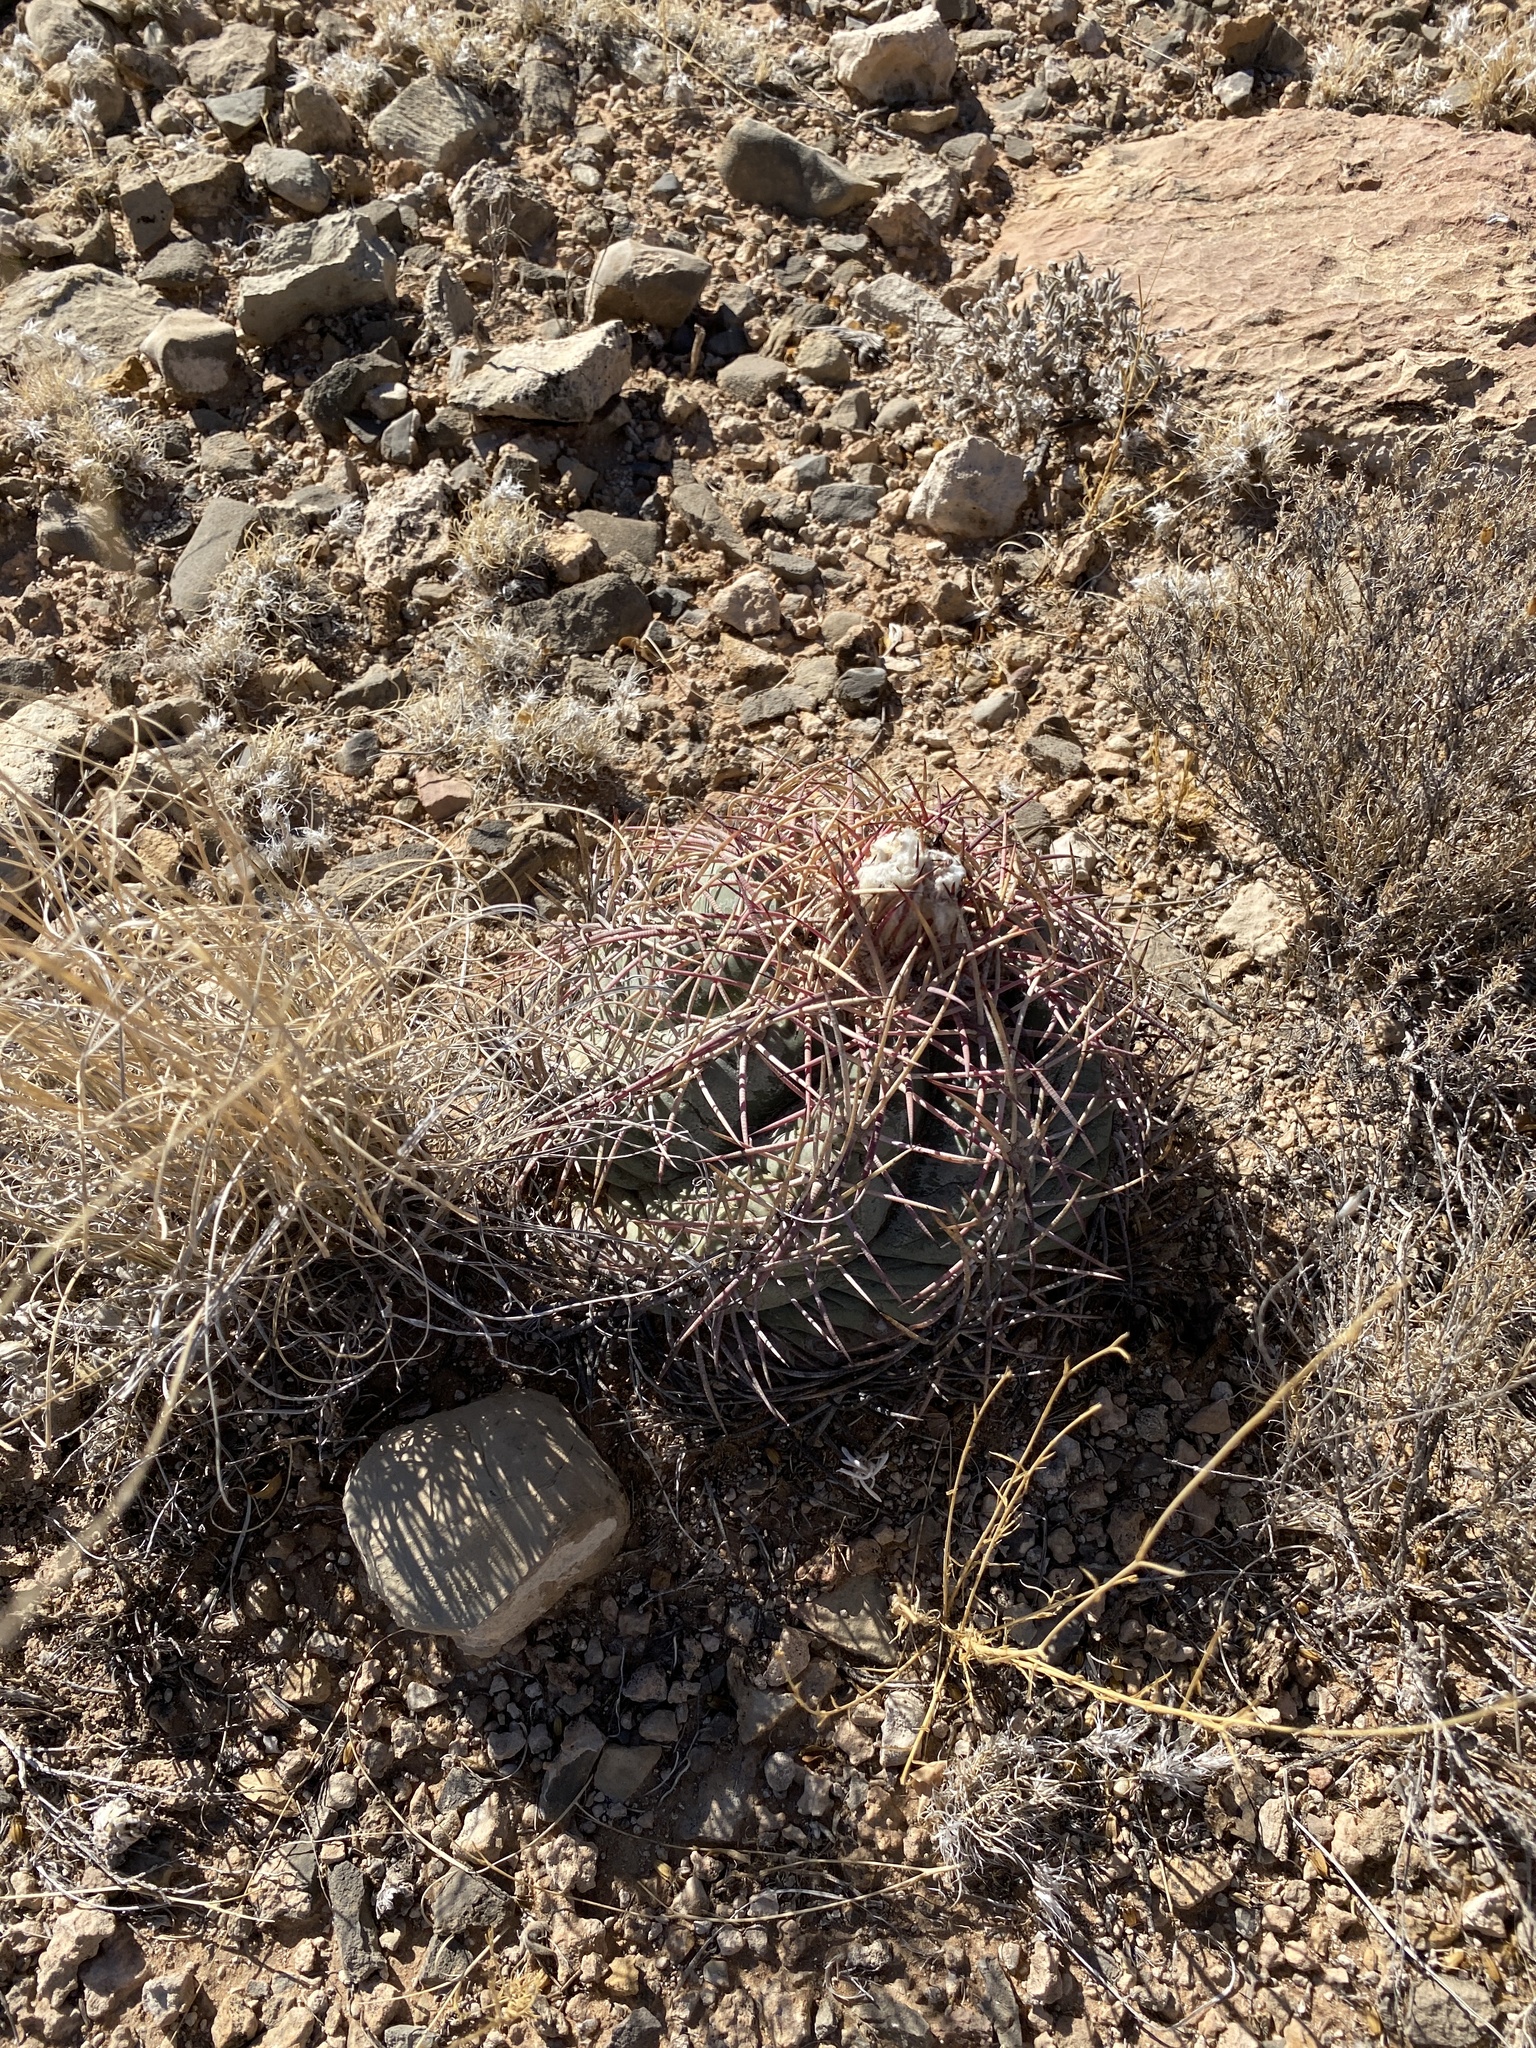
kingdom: Plantae
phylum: Tracheophyta
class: Magnoliopsida
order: Caryophyllales
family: Cactaceae
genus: Echinocactus
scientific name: Echinocactus horizonthalonius
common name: Devilshead
